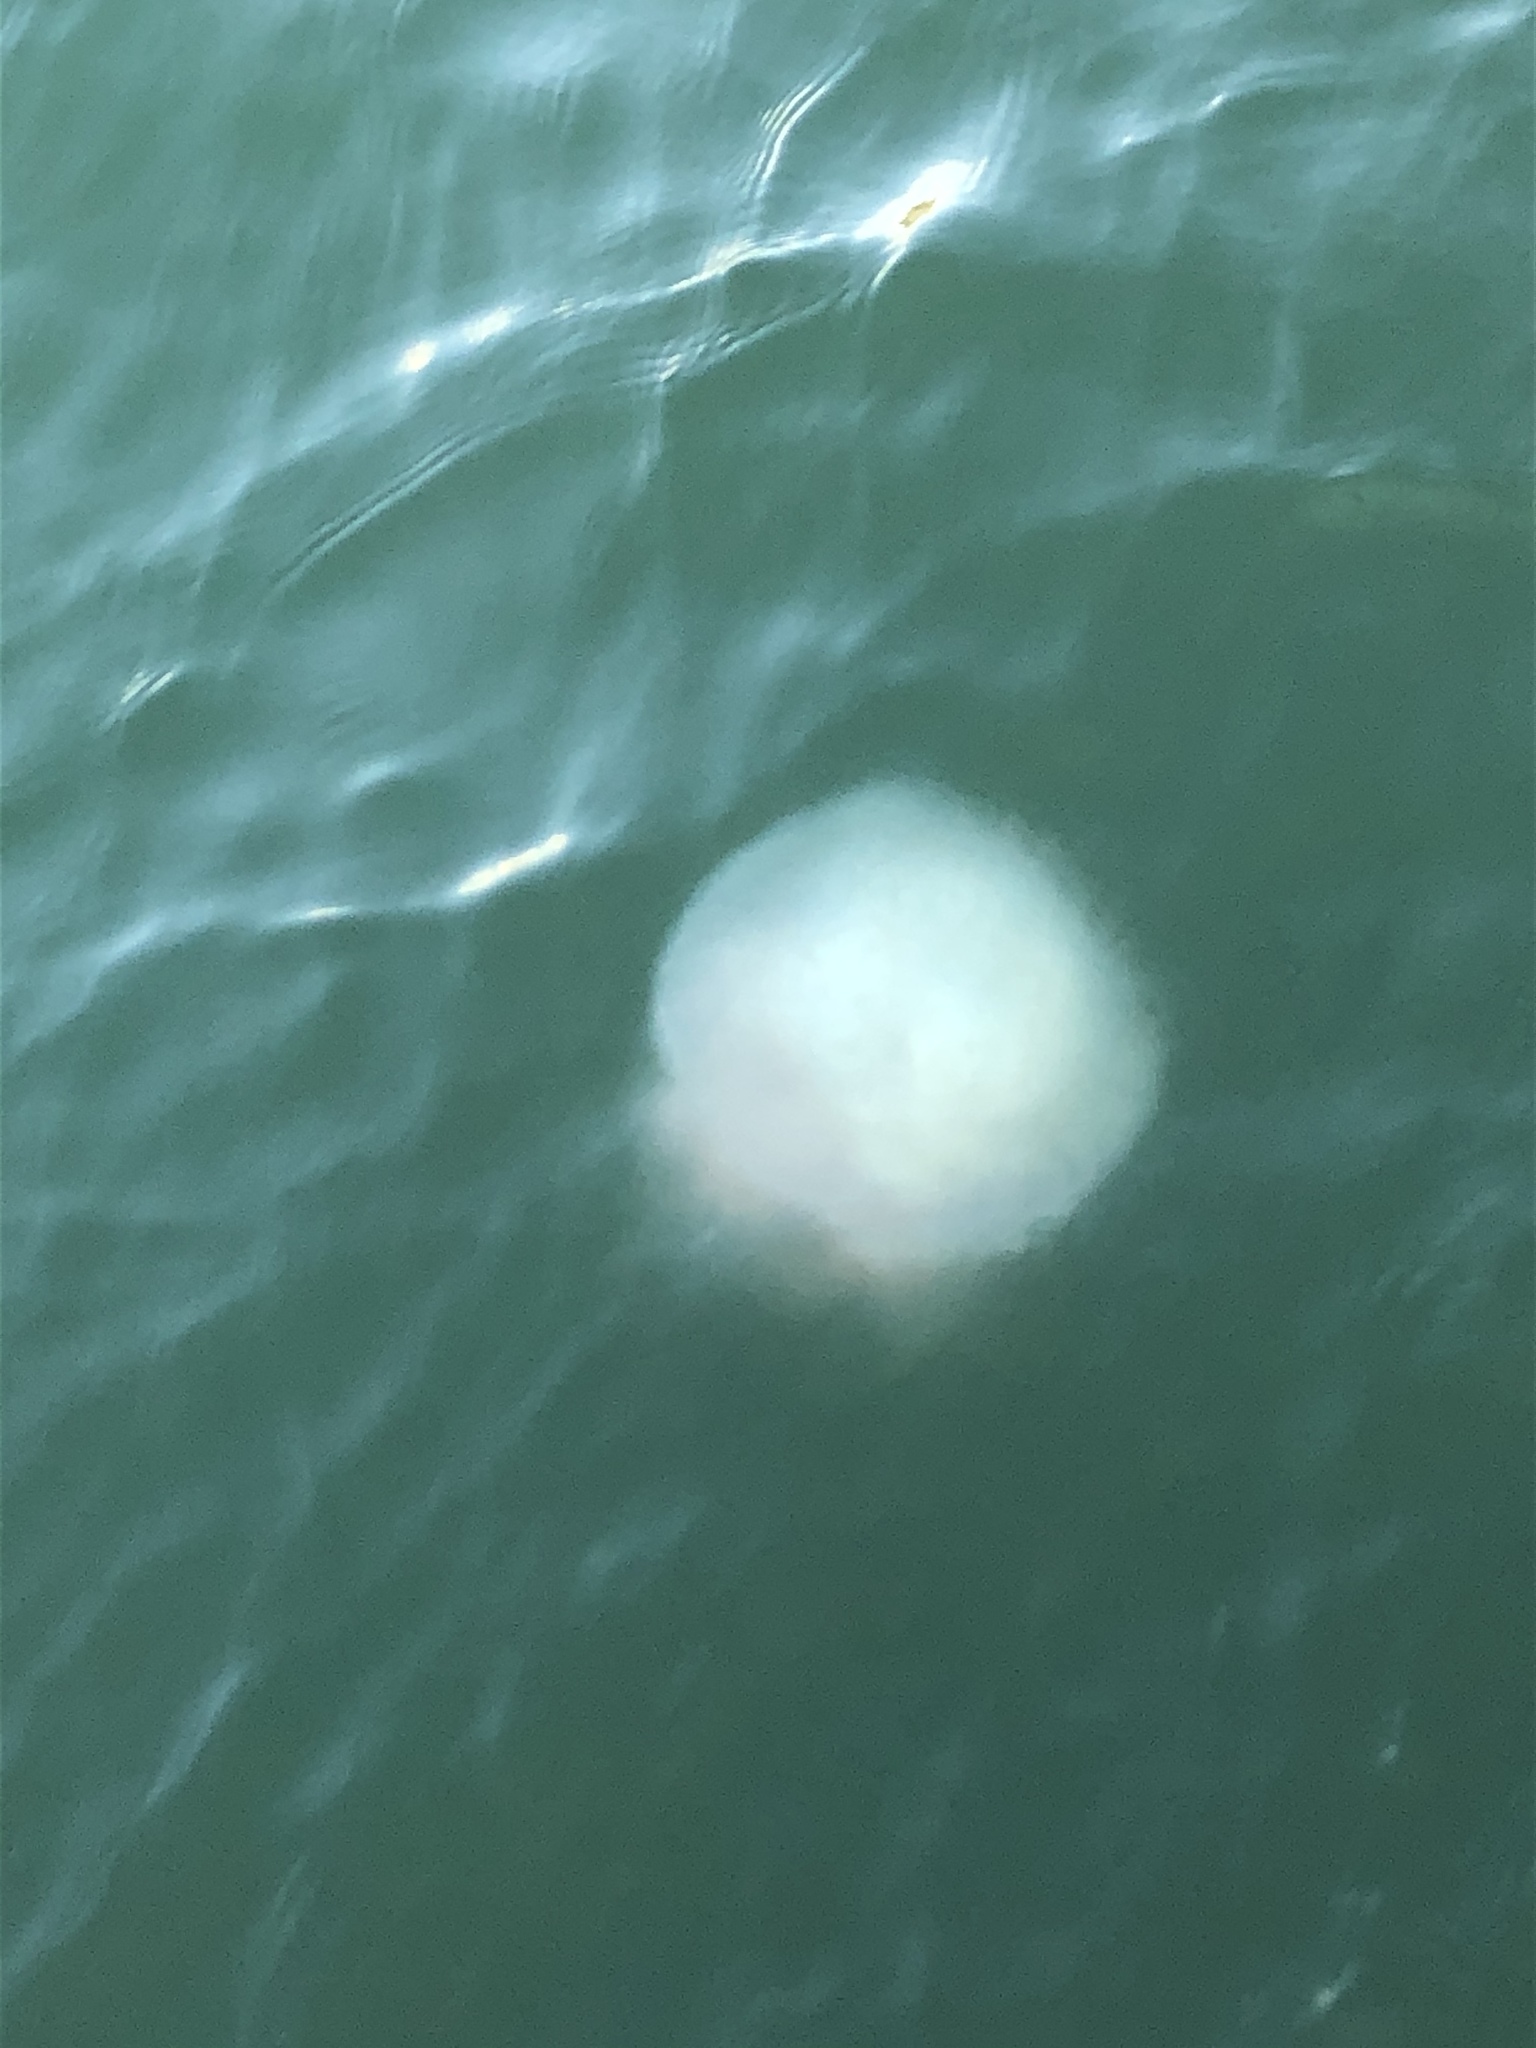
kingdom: Animalia
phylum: Cnidaria
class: Scyphozoa
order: Rhizostomeae
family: Lobonemidae
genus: Lobonema
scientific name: Lobonema smithii
